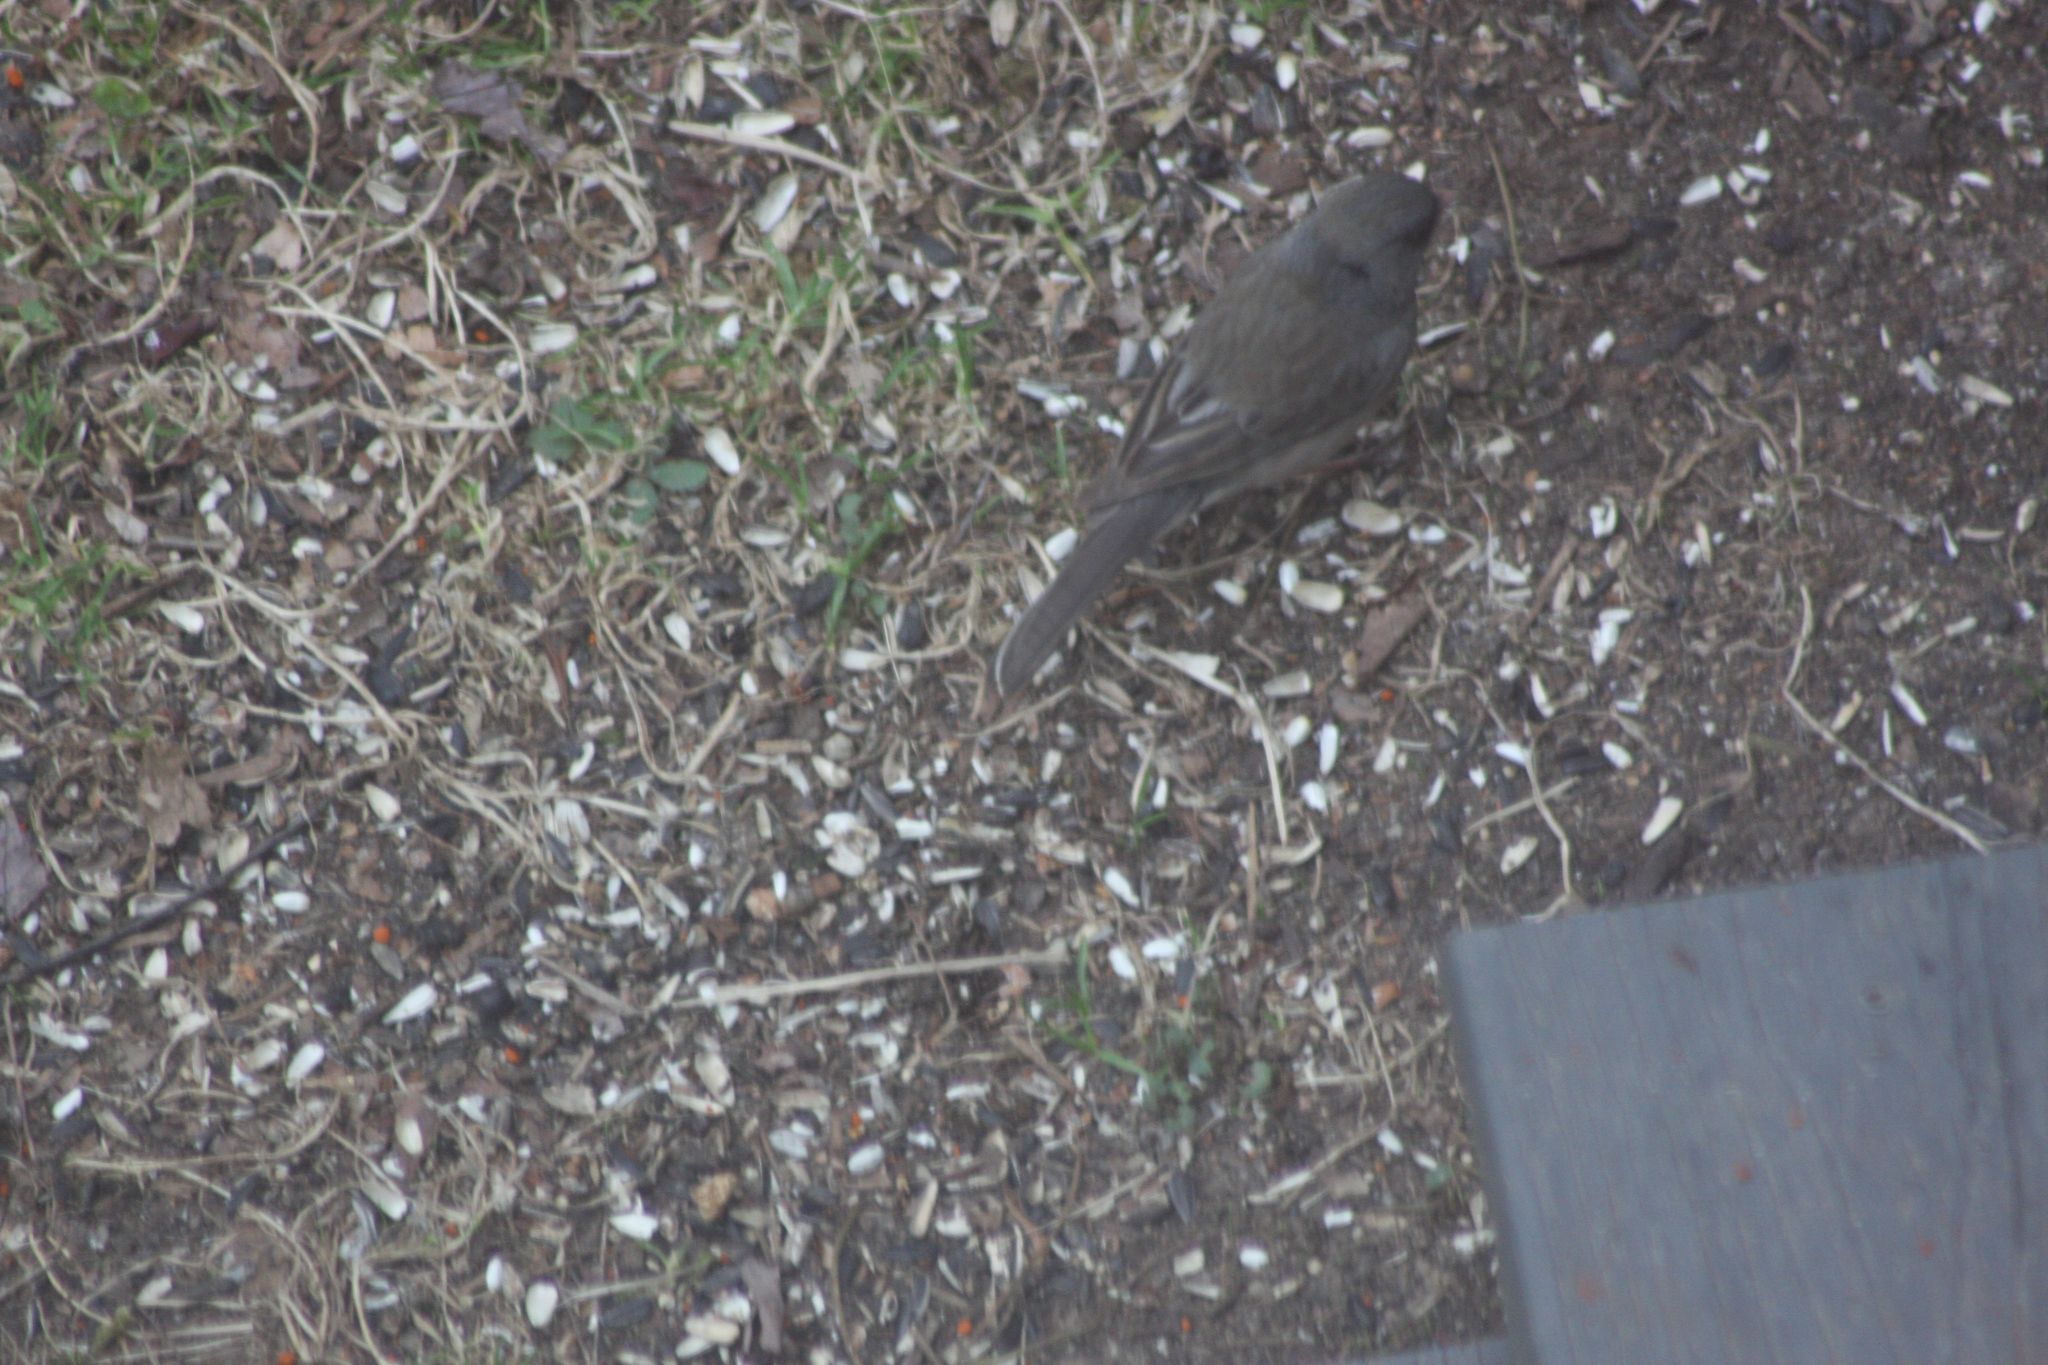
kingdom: Animalia
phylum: Chordata
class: Aves
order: Passeriformes
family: Passerellidae
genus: Junco
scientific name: Junco hyemalis
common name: Dark-eyed junco
